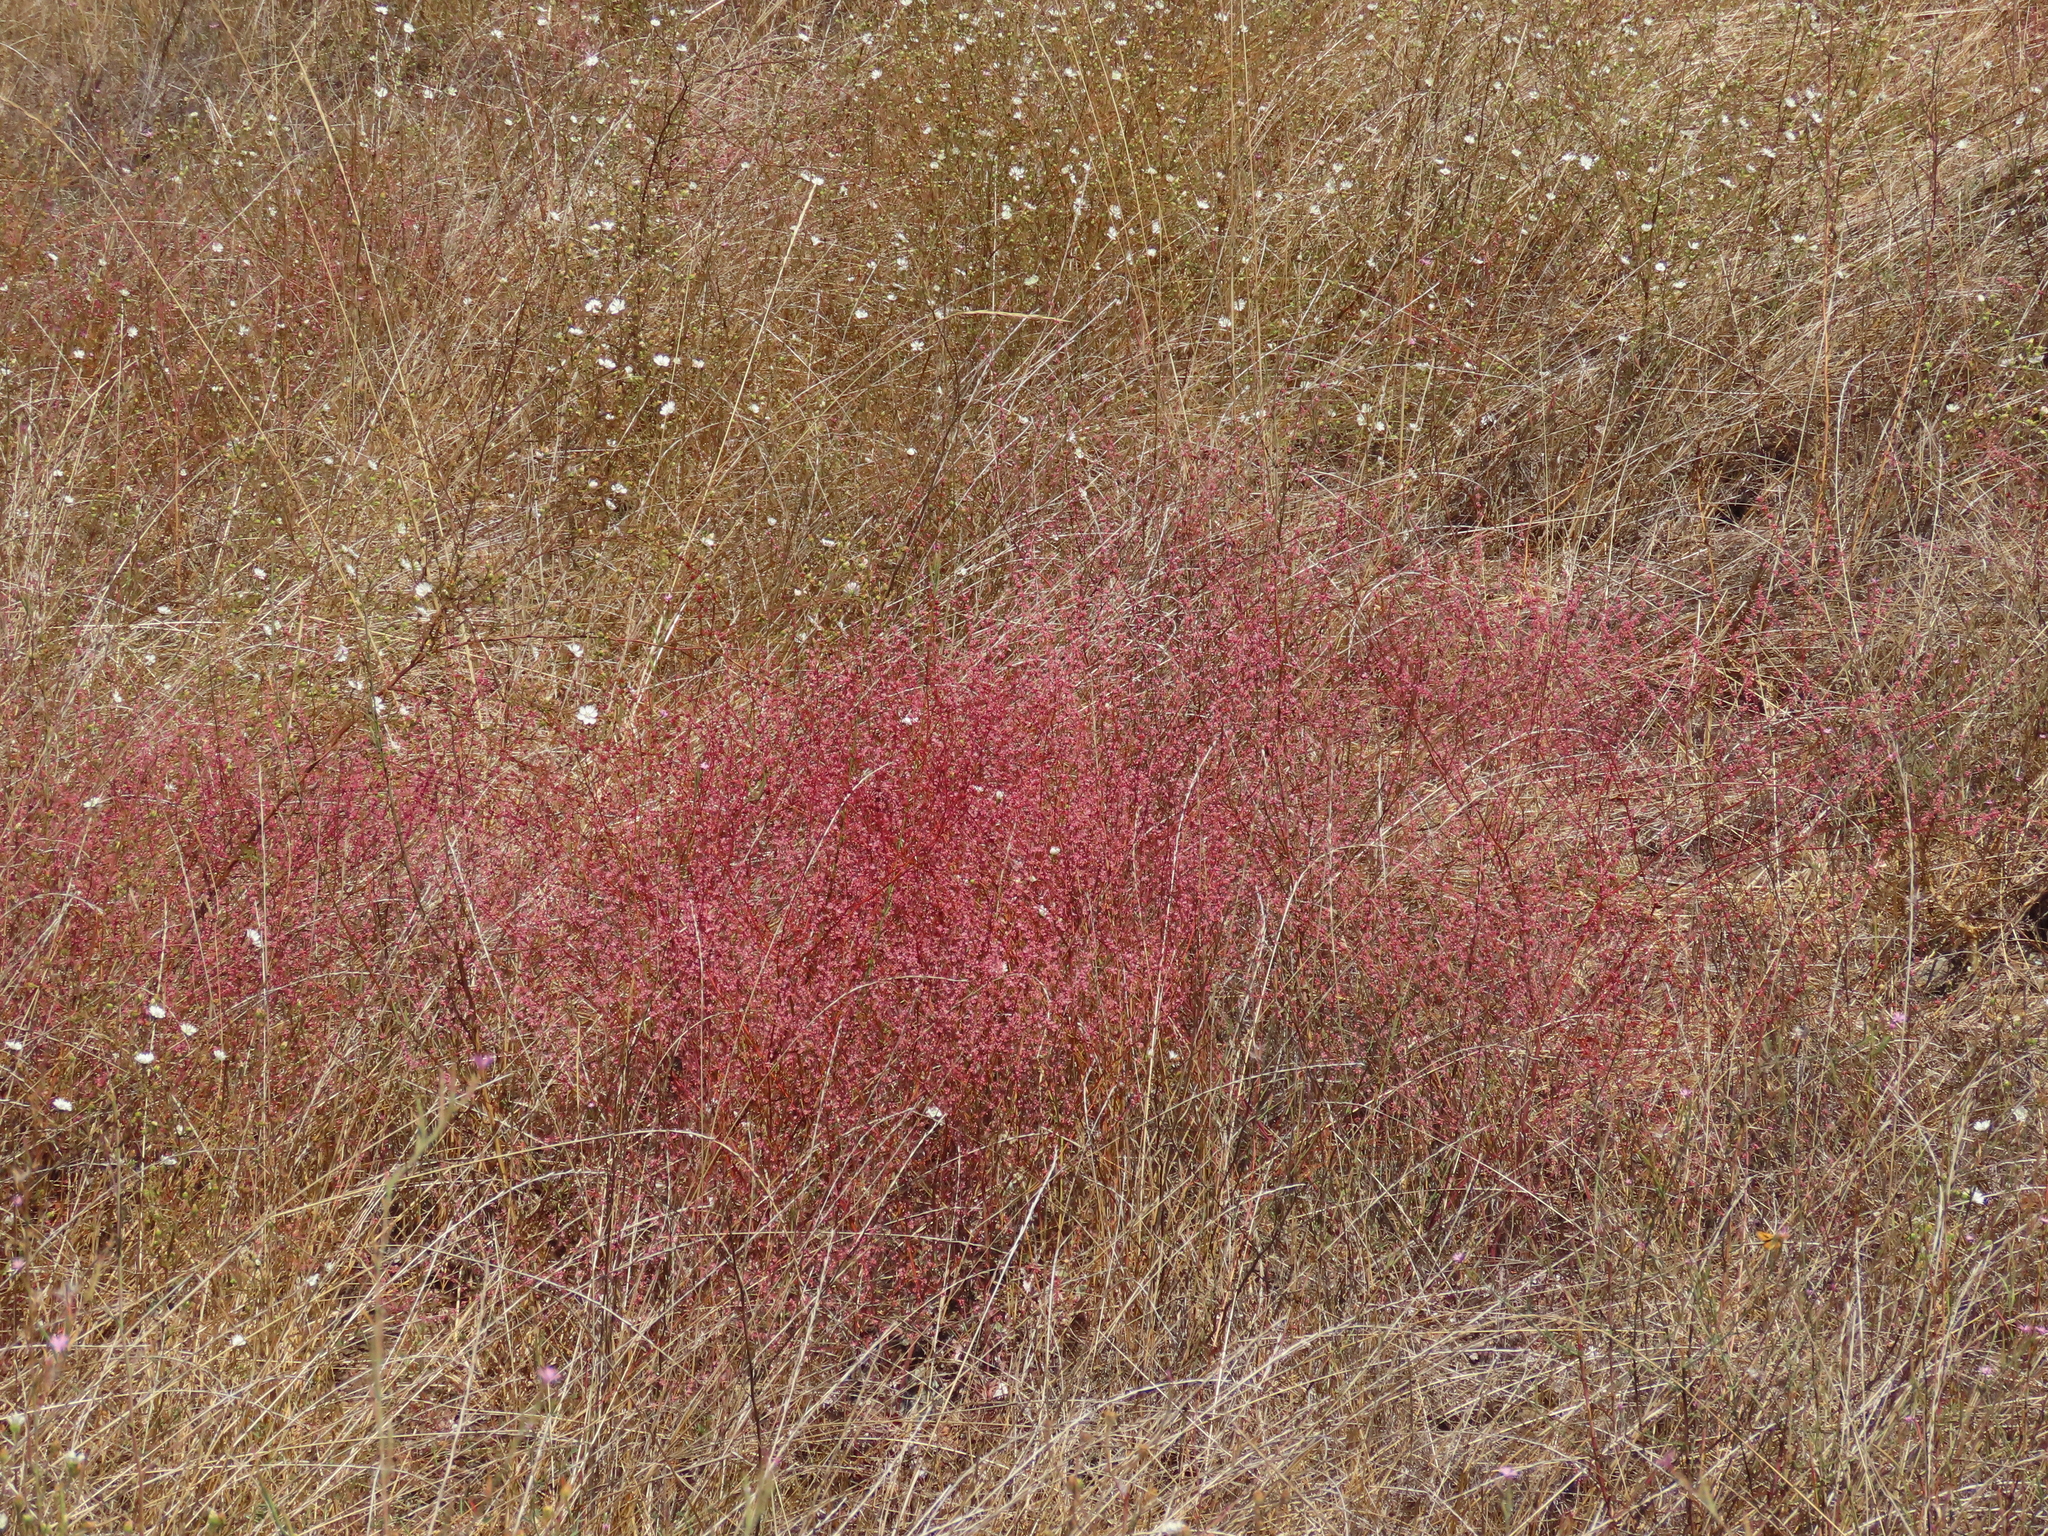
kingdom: Plantae
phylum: Tracheophyta
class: Magnoliopsida
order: Caryophyllales
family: Polygonaceae
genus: Eriogonum
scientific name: Eriogonum luteolum
